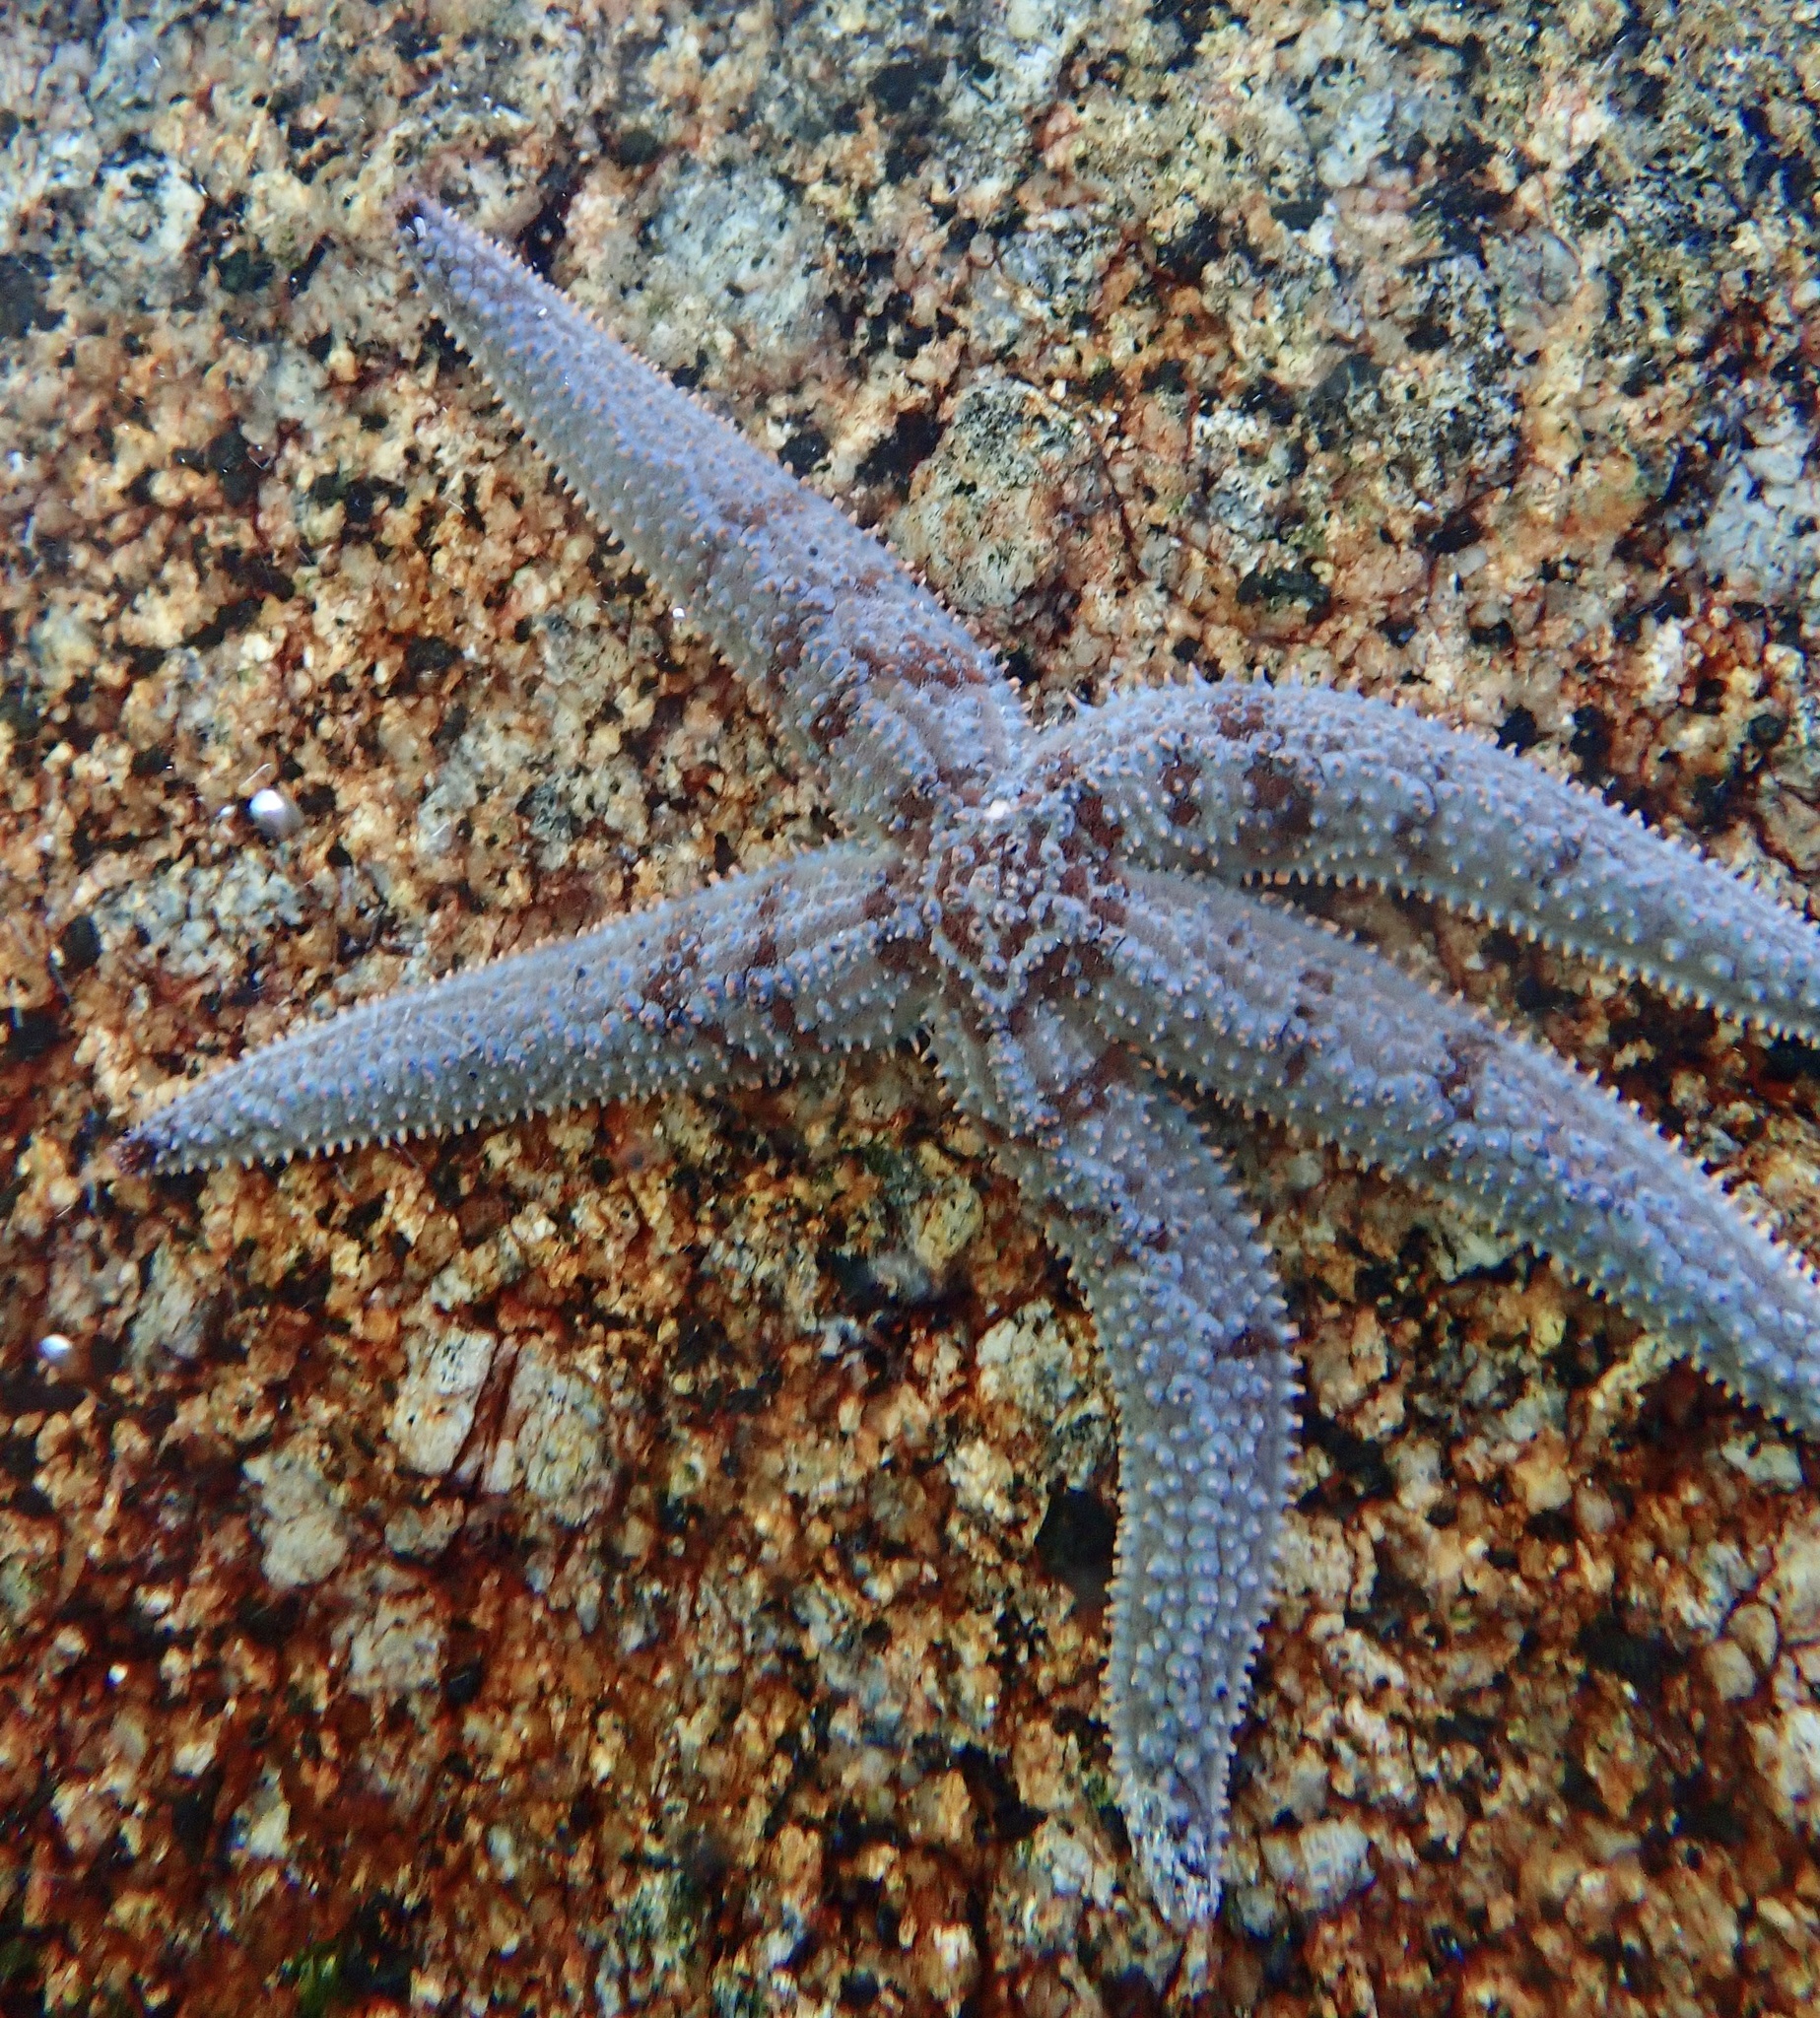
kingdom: Animalia
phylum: Echinodermata
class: Asteroidea
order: Forcipulatida
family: Asteriidae
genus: Marthasterias
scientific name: Marthasterias africana
